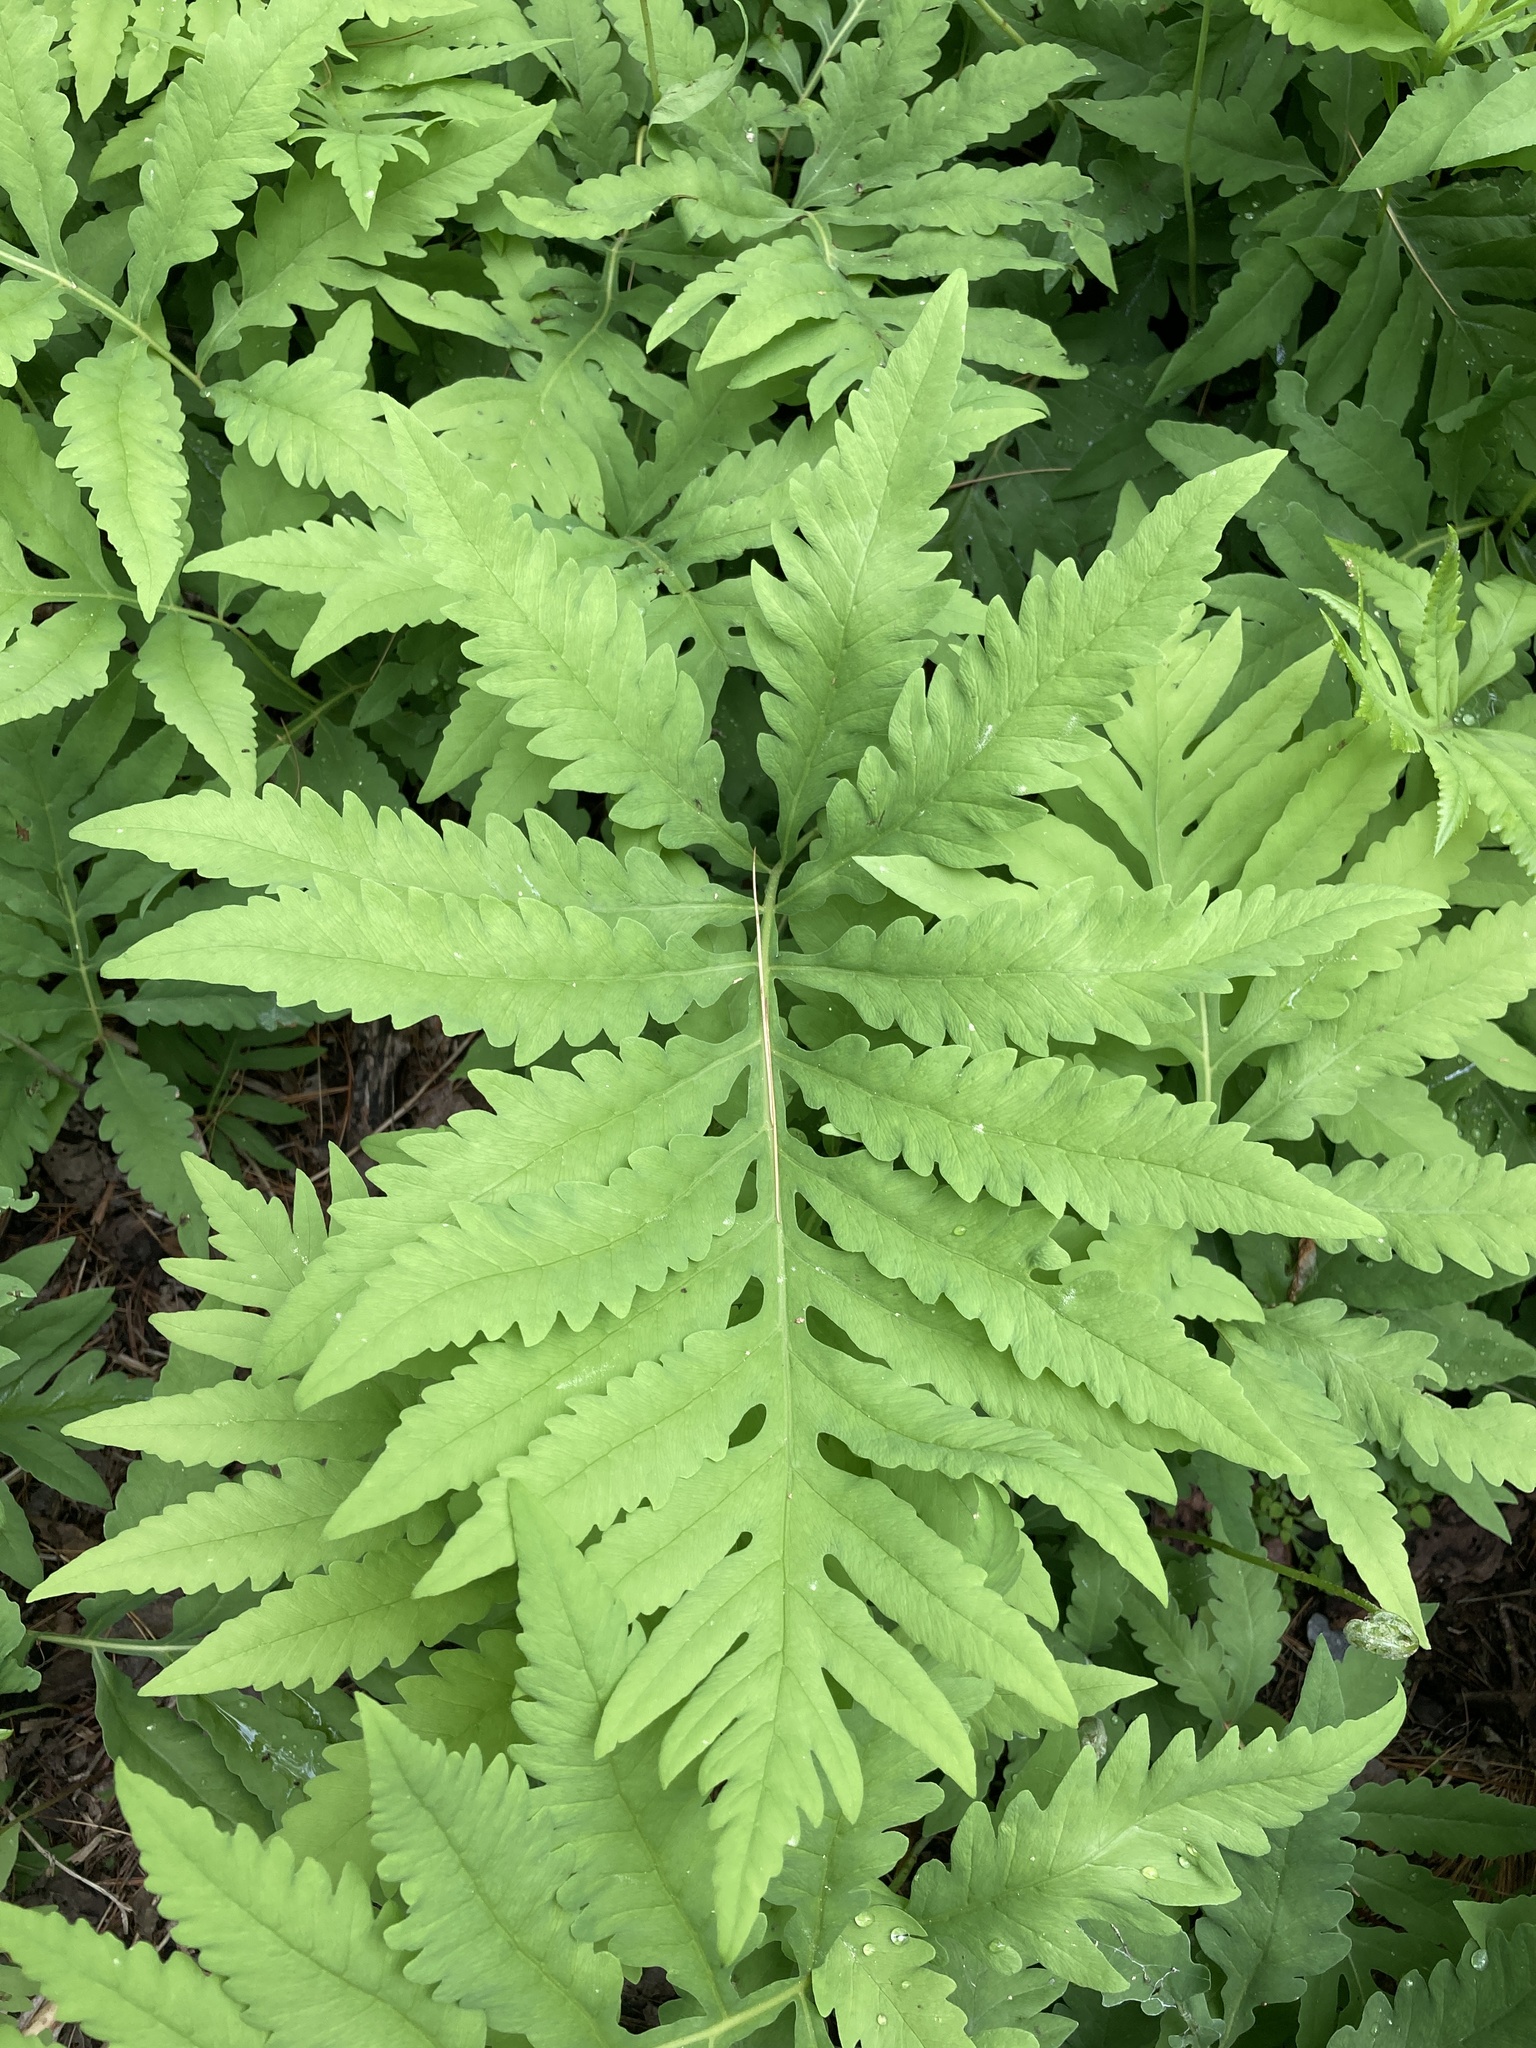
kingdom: Plantae
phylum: Tracheophyta
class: Polypodiopsida
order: Polypodiales
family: Onocleaceae
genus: Onoclea
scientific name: Onoclea sensibilis
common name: Sensitive fern
